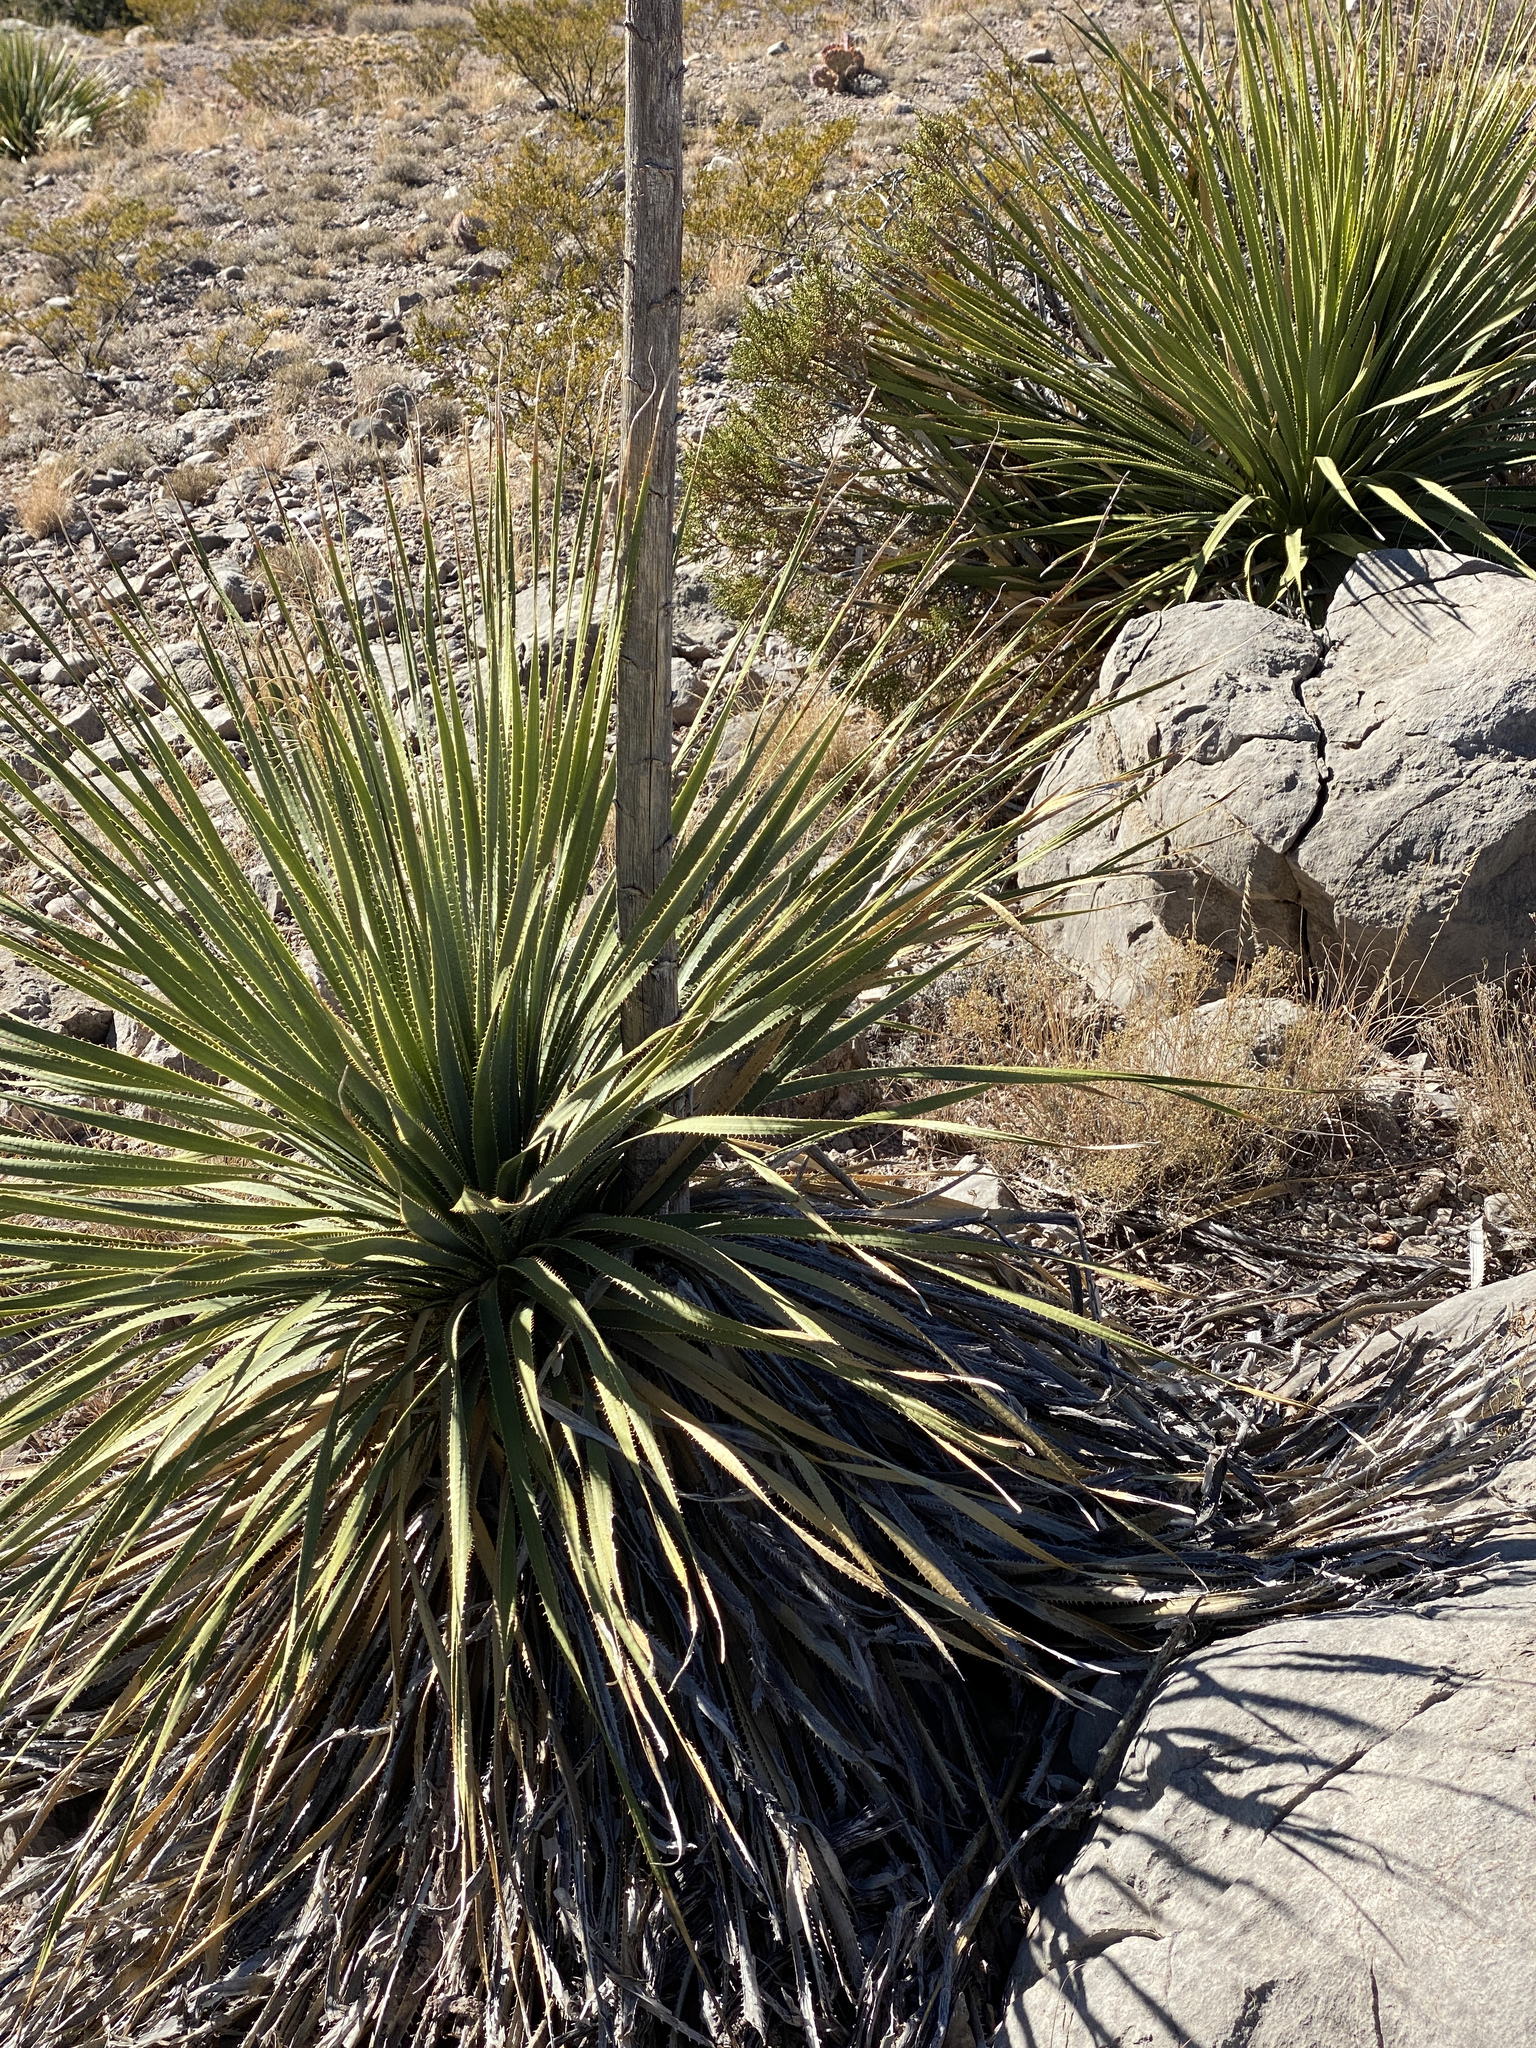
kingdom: Plantae
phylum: Tracheophyta
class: Liliopsida
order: Asparagales
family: Asparagaceae
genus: Dasylirion
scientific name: Dasylirion wheeleri
